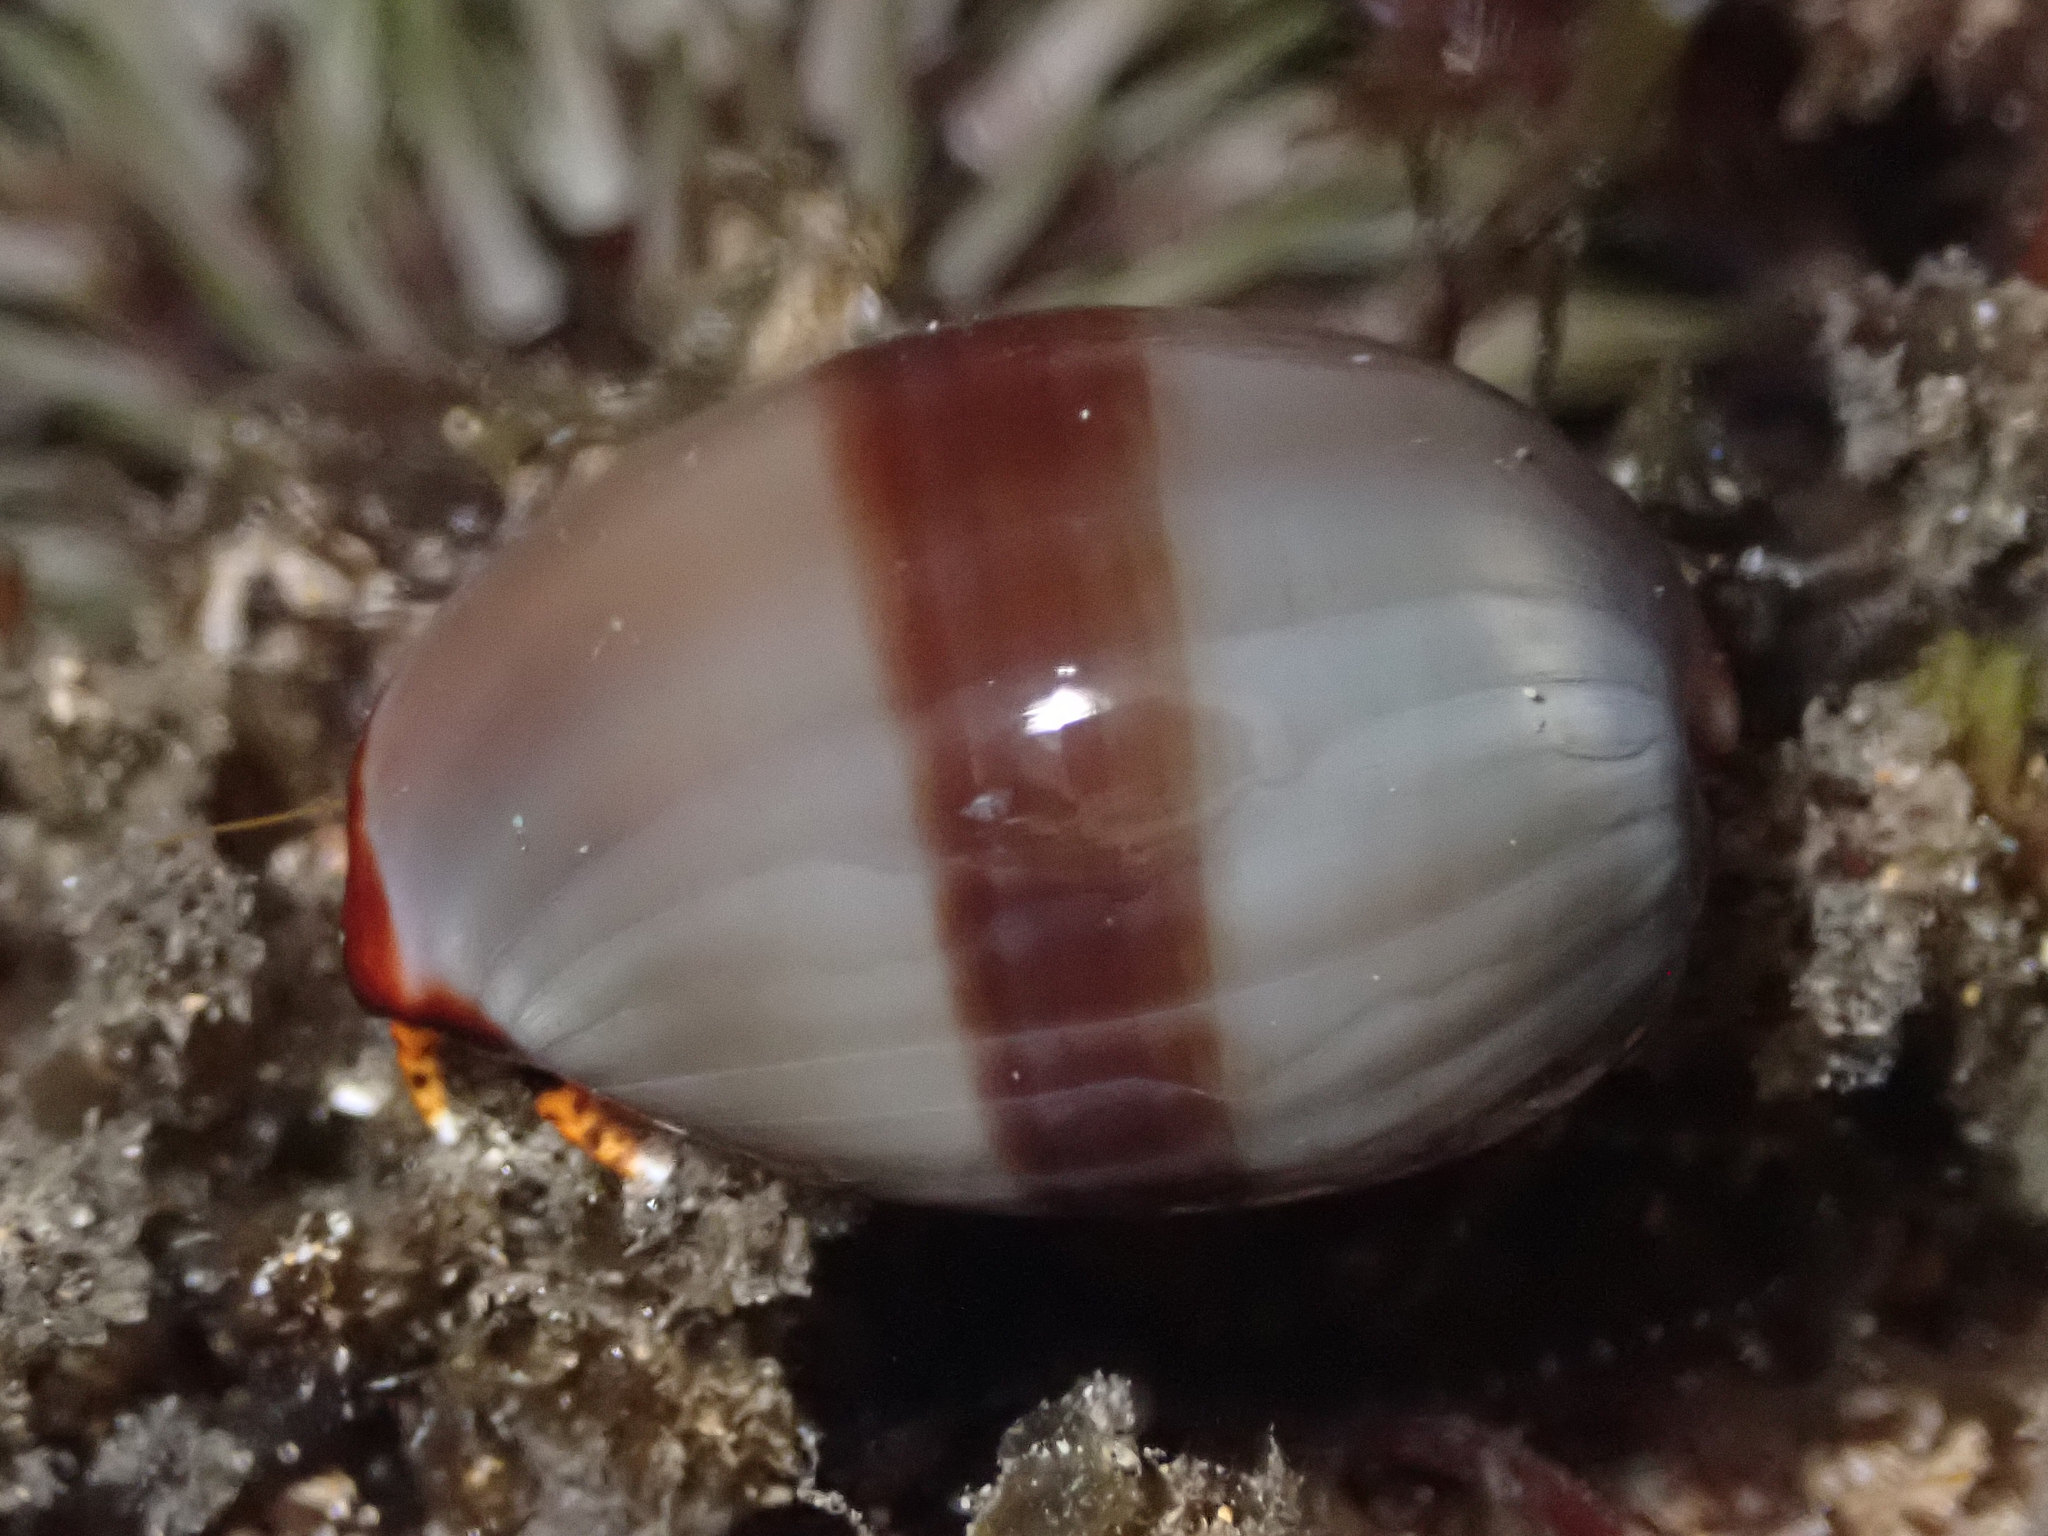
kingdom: Animalia
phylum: Mollusca
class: Gastropoda
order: Littorinimorpha
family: Cypraeidae
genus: Monetaria
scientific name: Monetaria caputophidii
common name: Snake's head cowry
